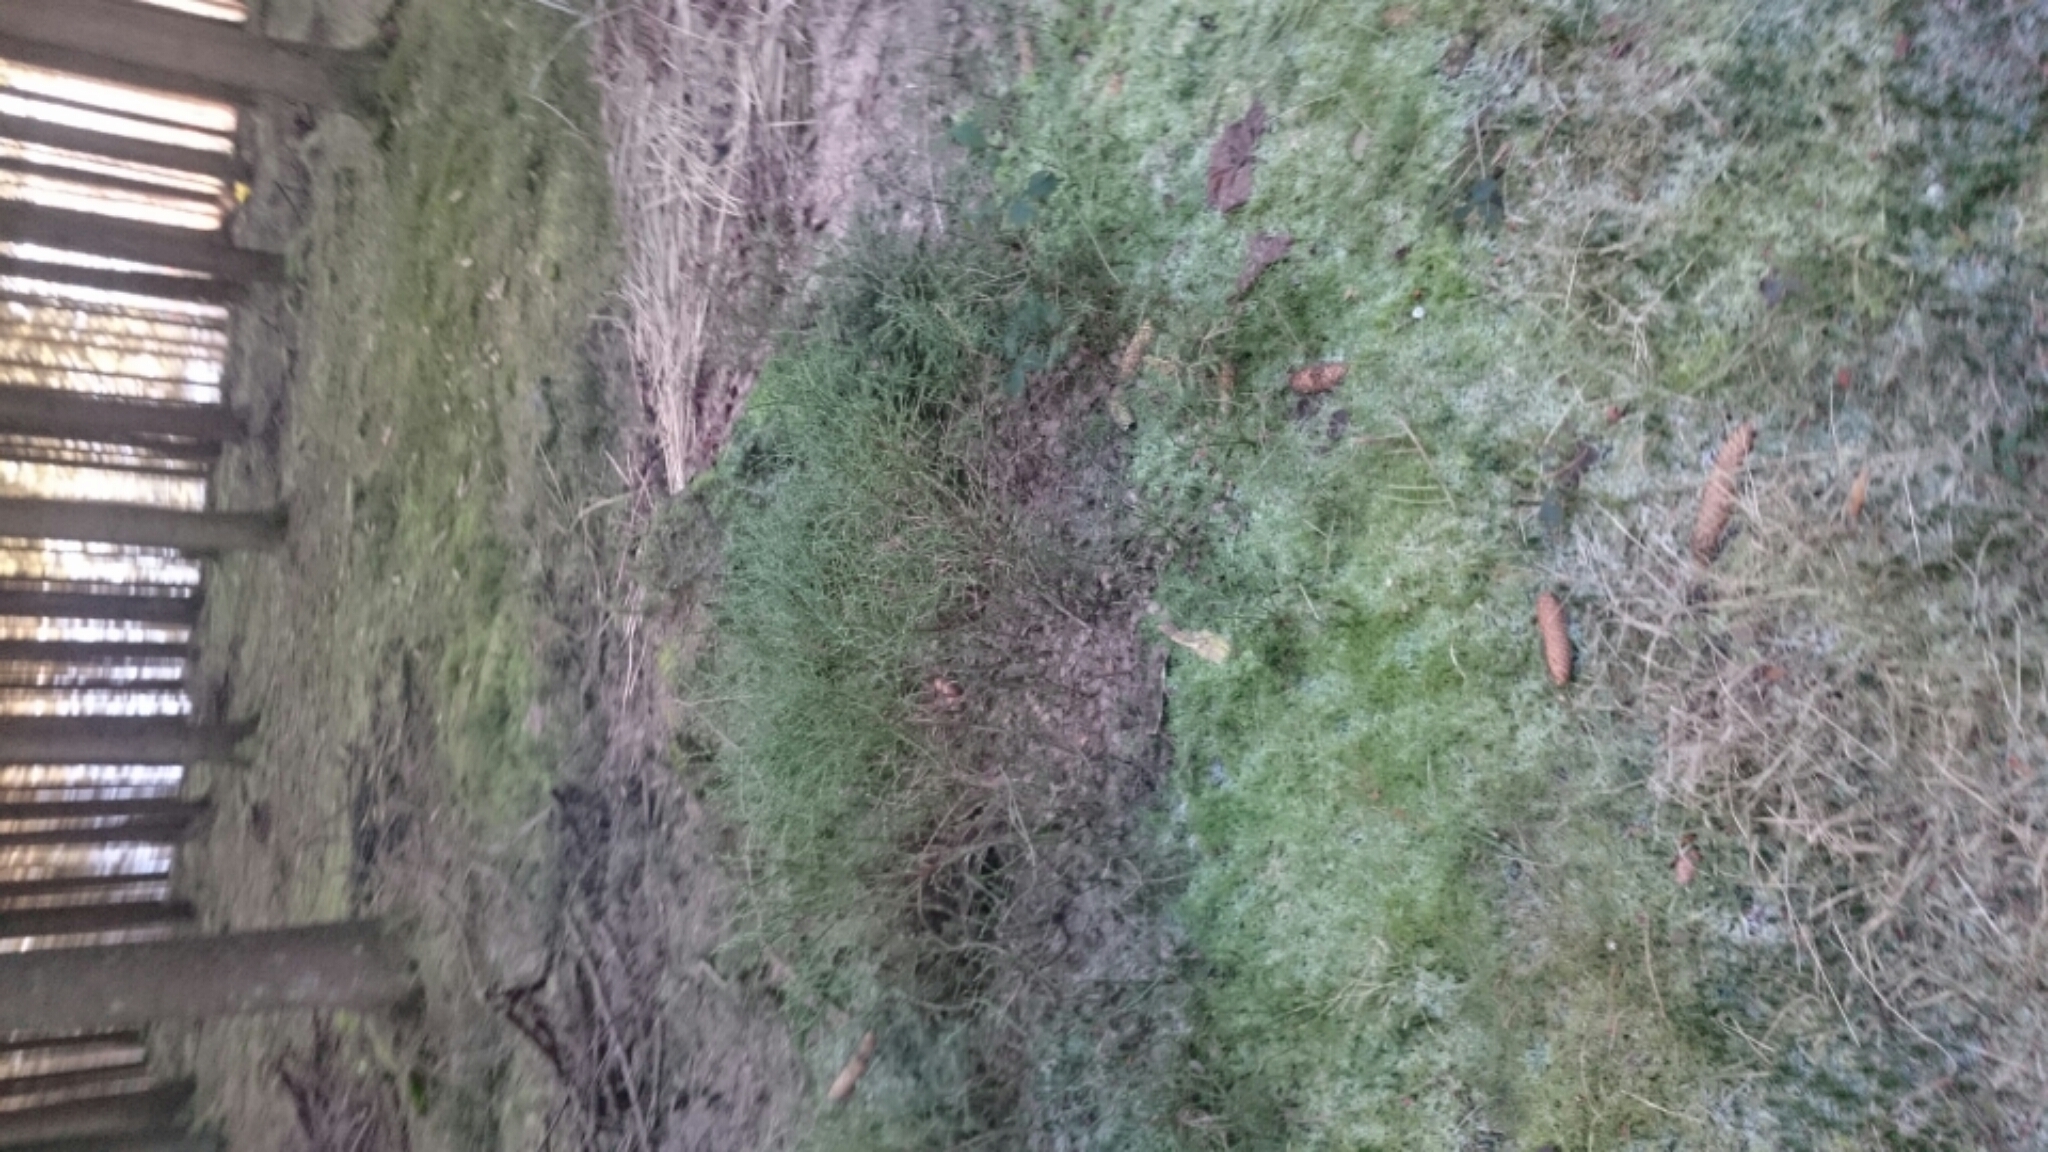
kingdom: Plantae
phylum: Tracheophyta
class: Magnoliopsida
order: Ericales
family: Ericaceae
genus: Vaccinium
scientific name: Vaccinium myrtillus
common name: Bilberry
